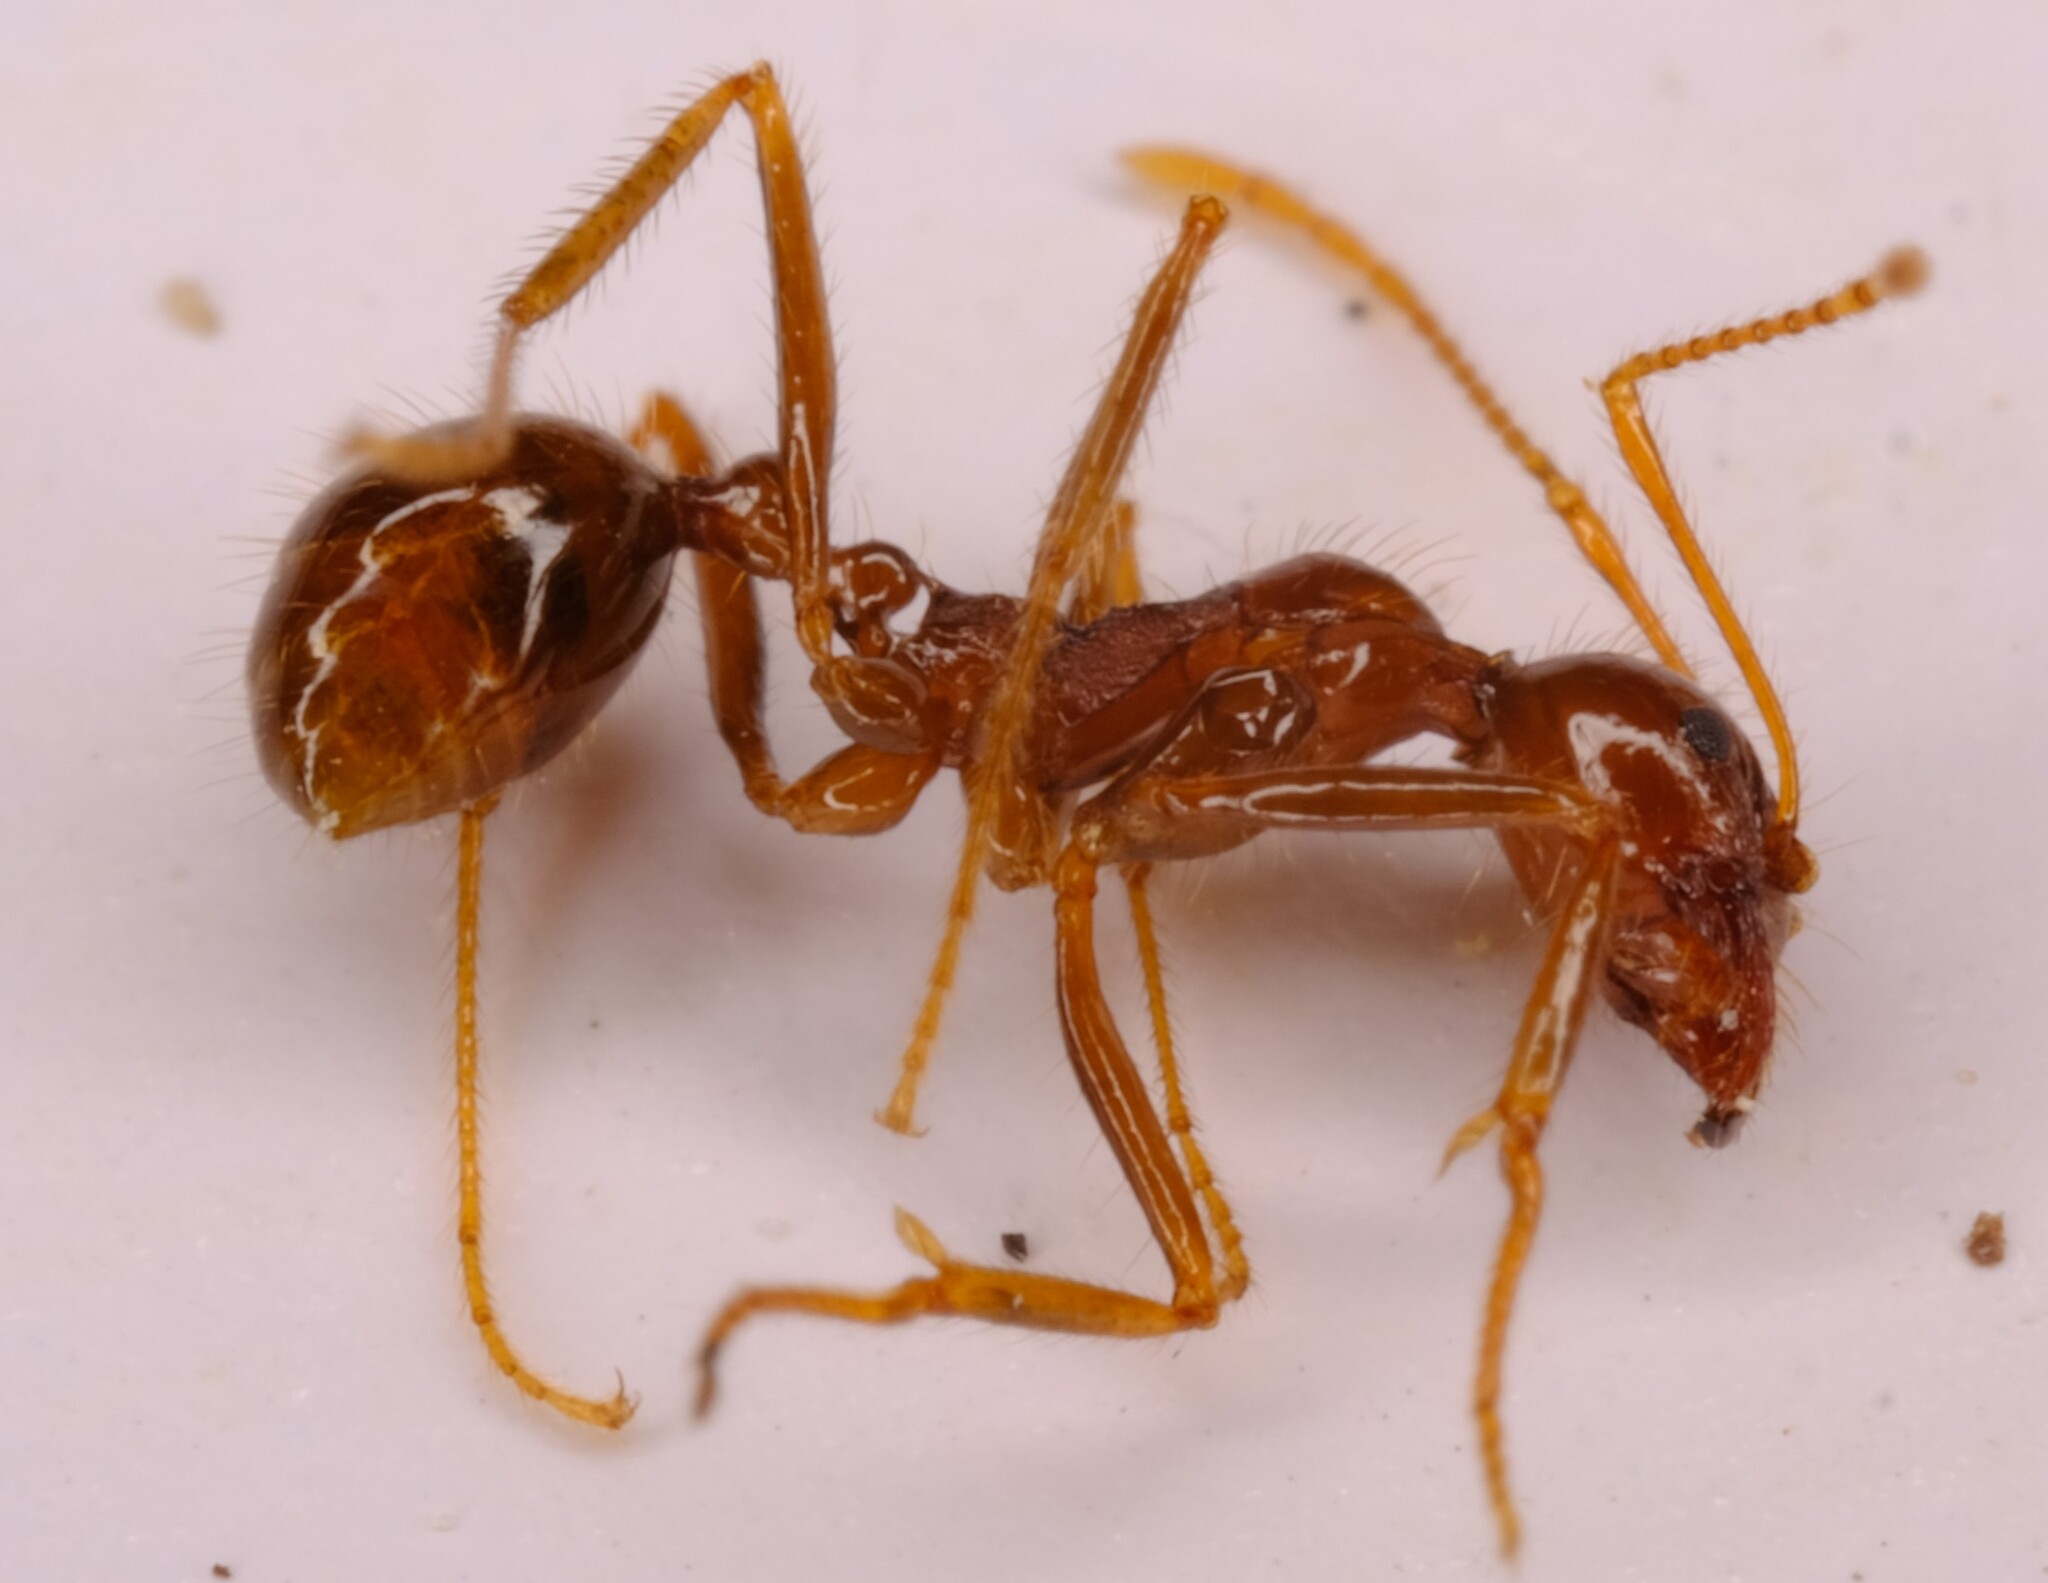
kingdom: Animalia
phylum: Arthropoda
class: Insecta
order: Hymenoptera
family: Formicidae
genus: Aphaenogaster
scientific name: Aphaenogaster longiceps
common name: Funnel ant
